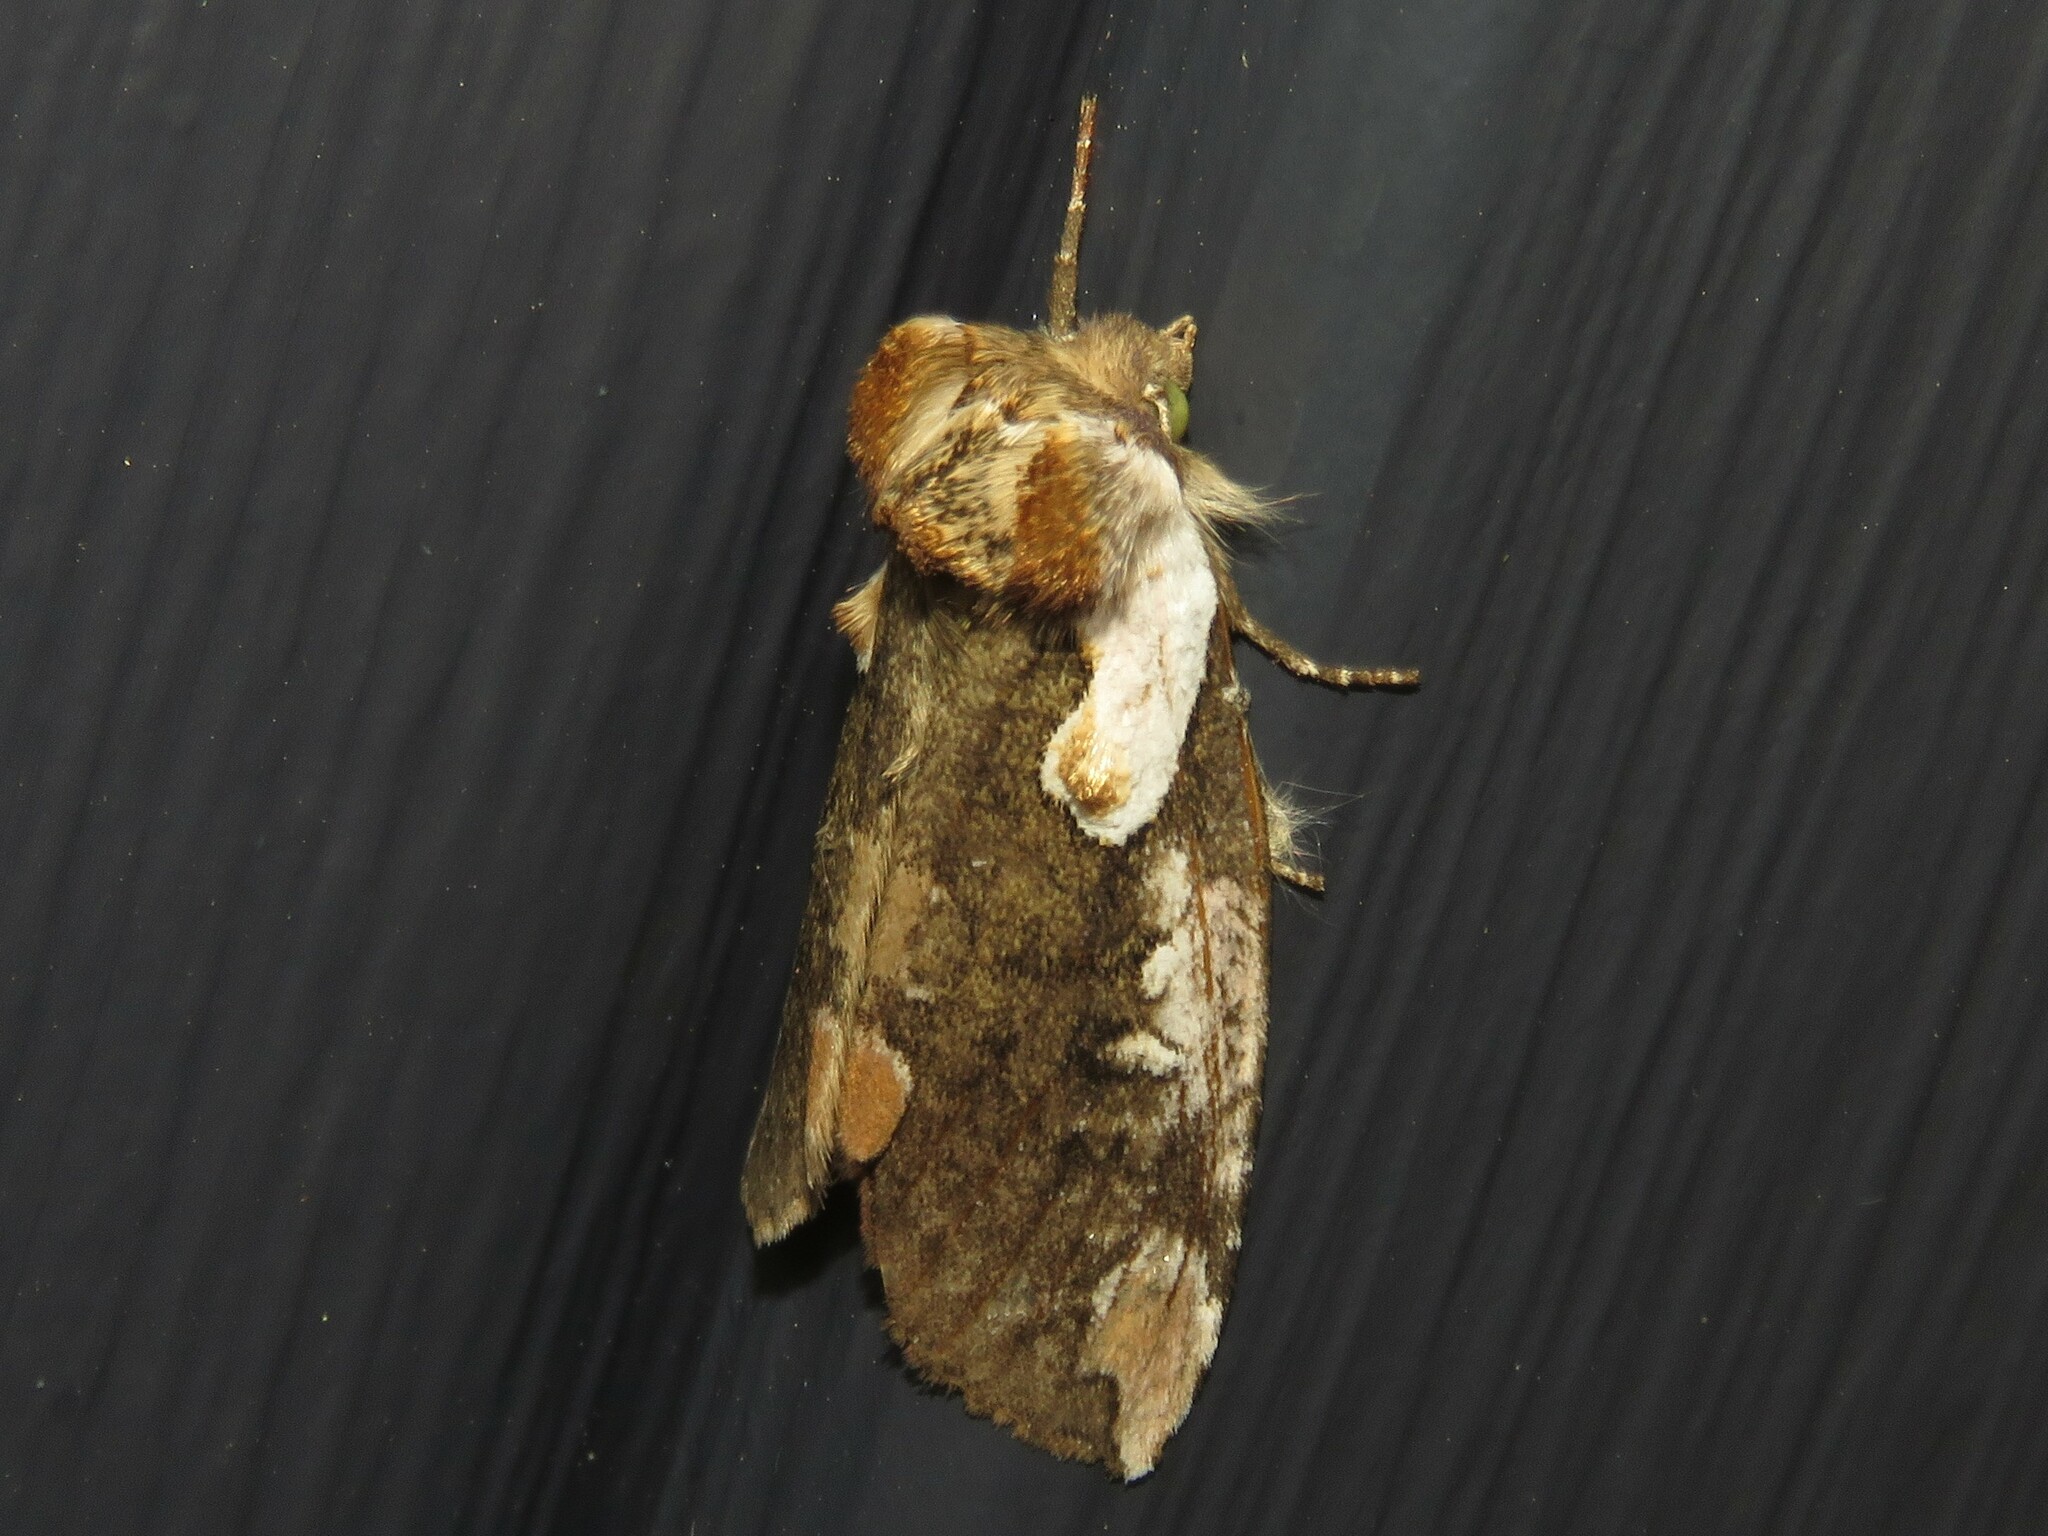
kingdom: Animalia
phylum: Arthropoda
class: Insecta
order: Lepidoptera
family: Drepanidae
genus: Euthyatira
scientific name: Euthyatira pudens
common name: Dogwood thyatirid moth
